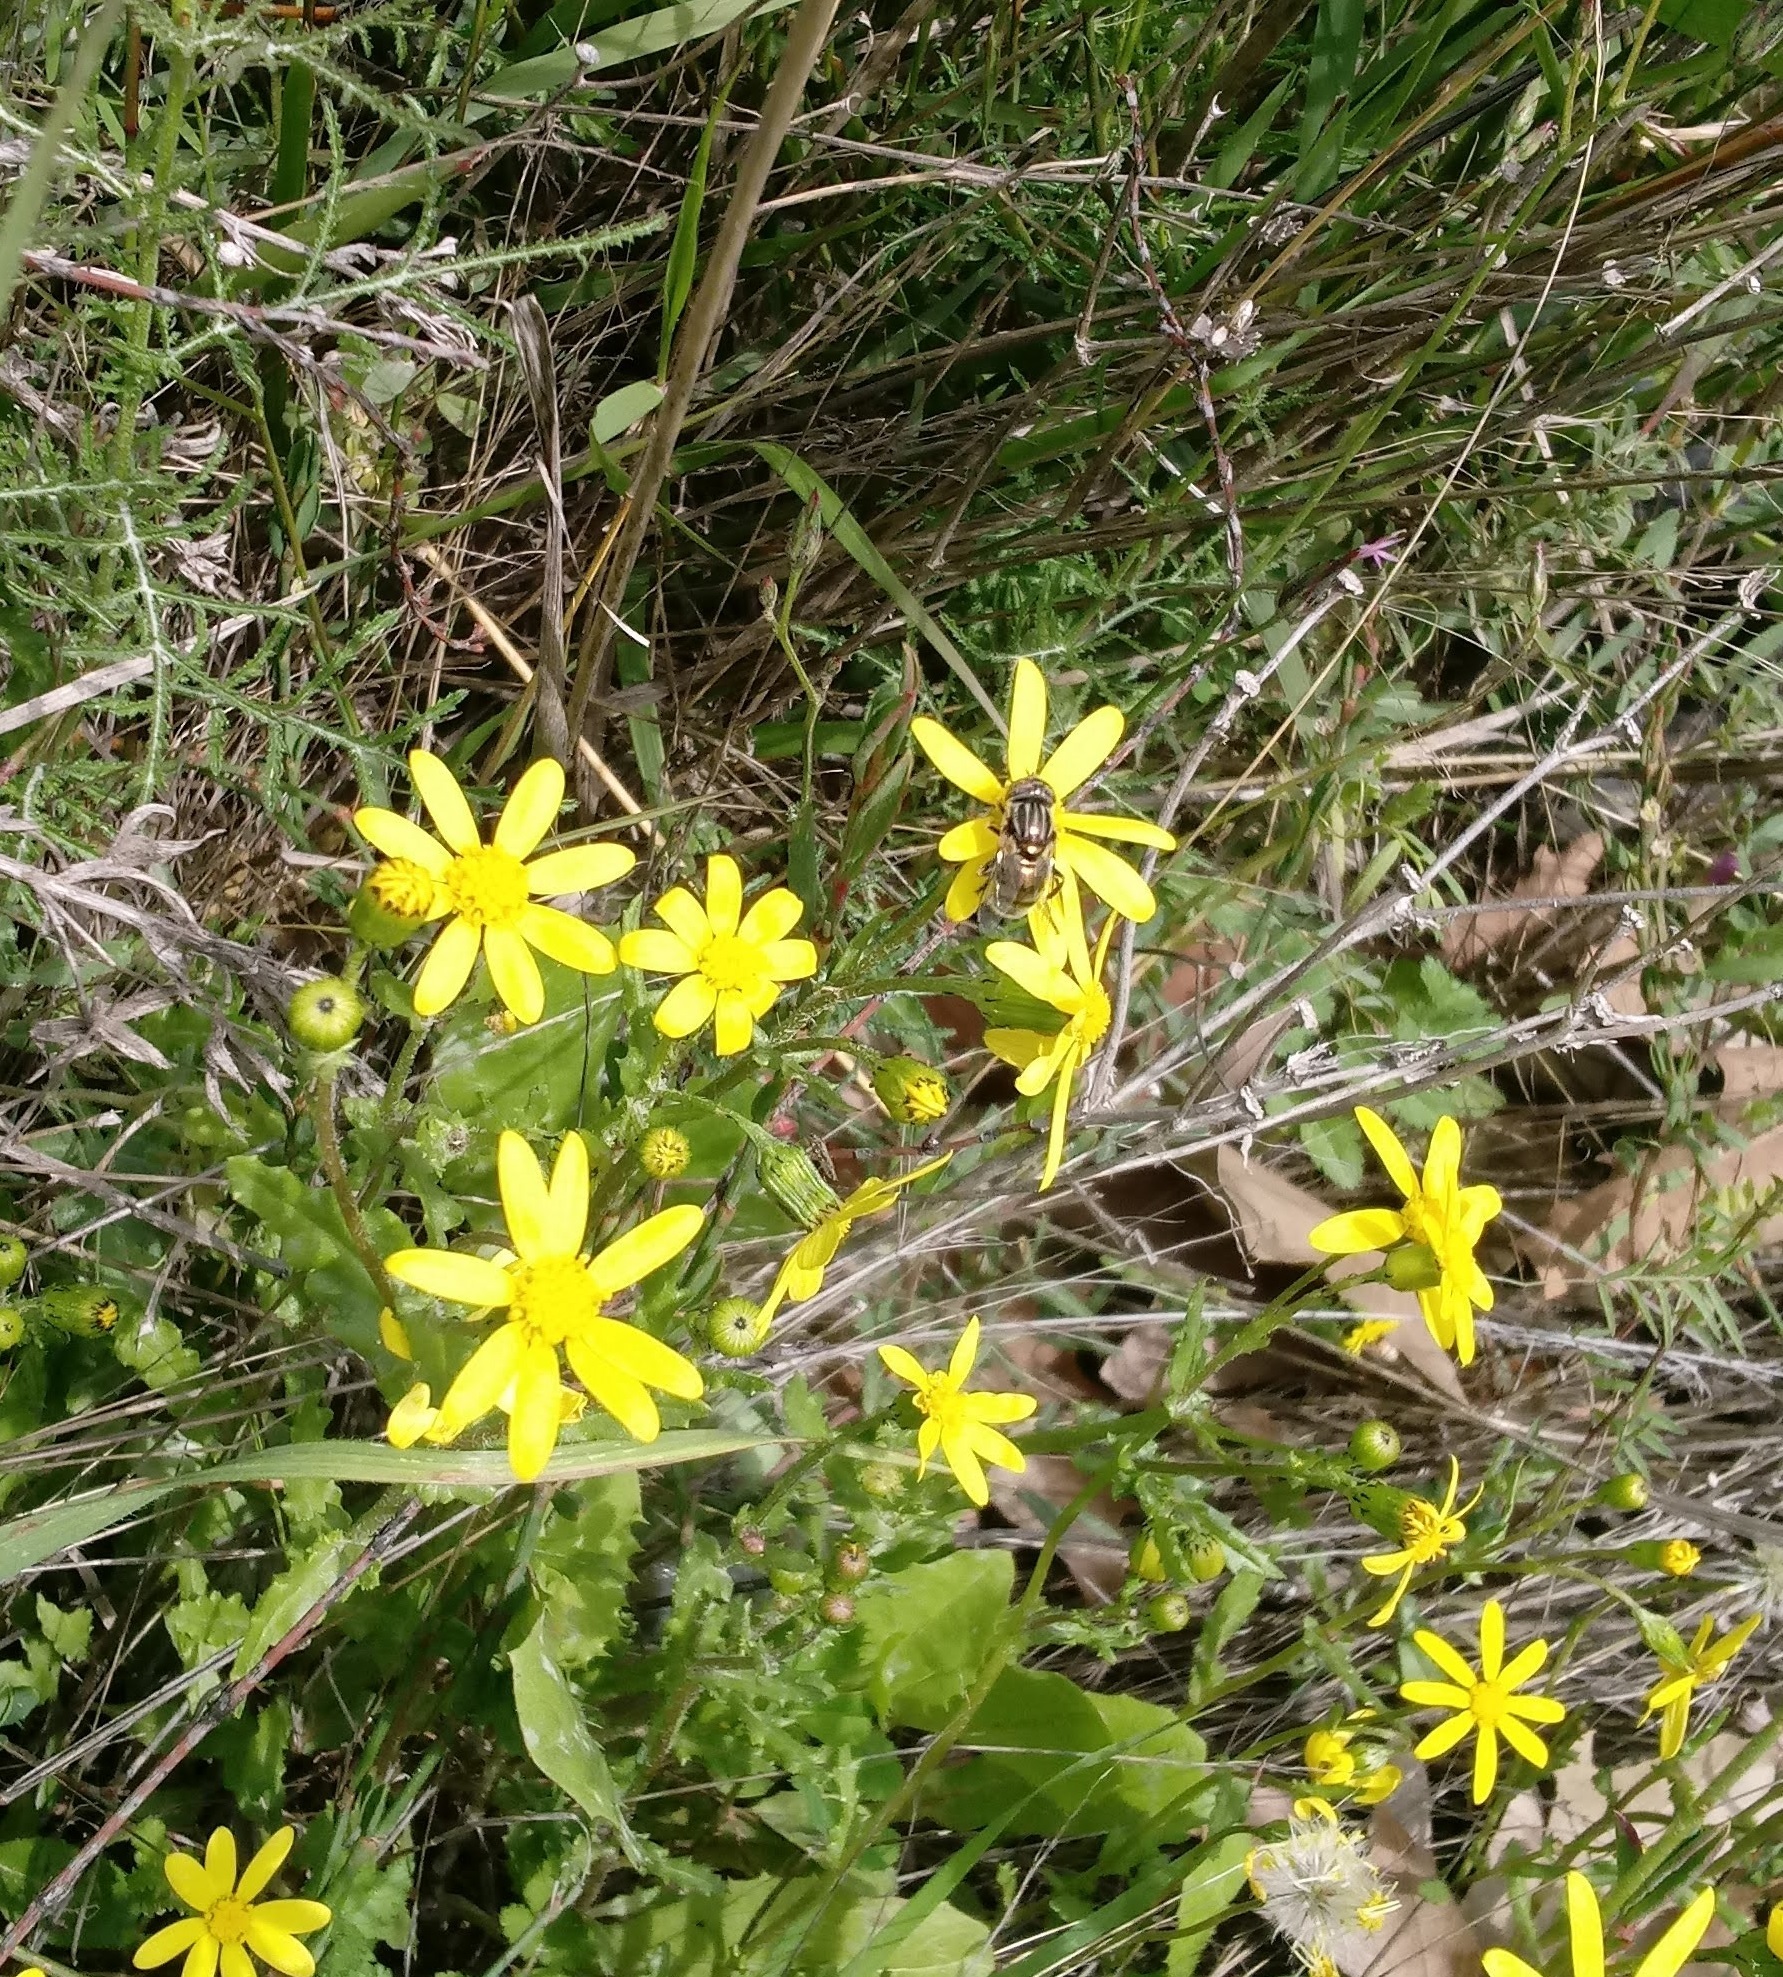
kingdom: Plantae
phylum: Tracheophyta
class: Magnoliopsida
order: Asterales
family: Asteraceae
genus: Senecio
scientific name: Senecio vernalis
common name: Eastern groundsel
